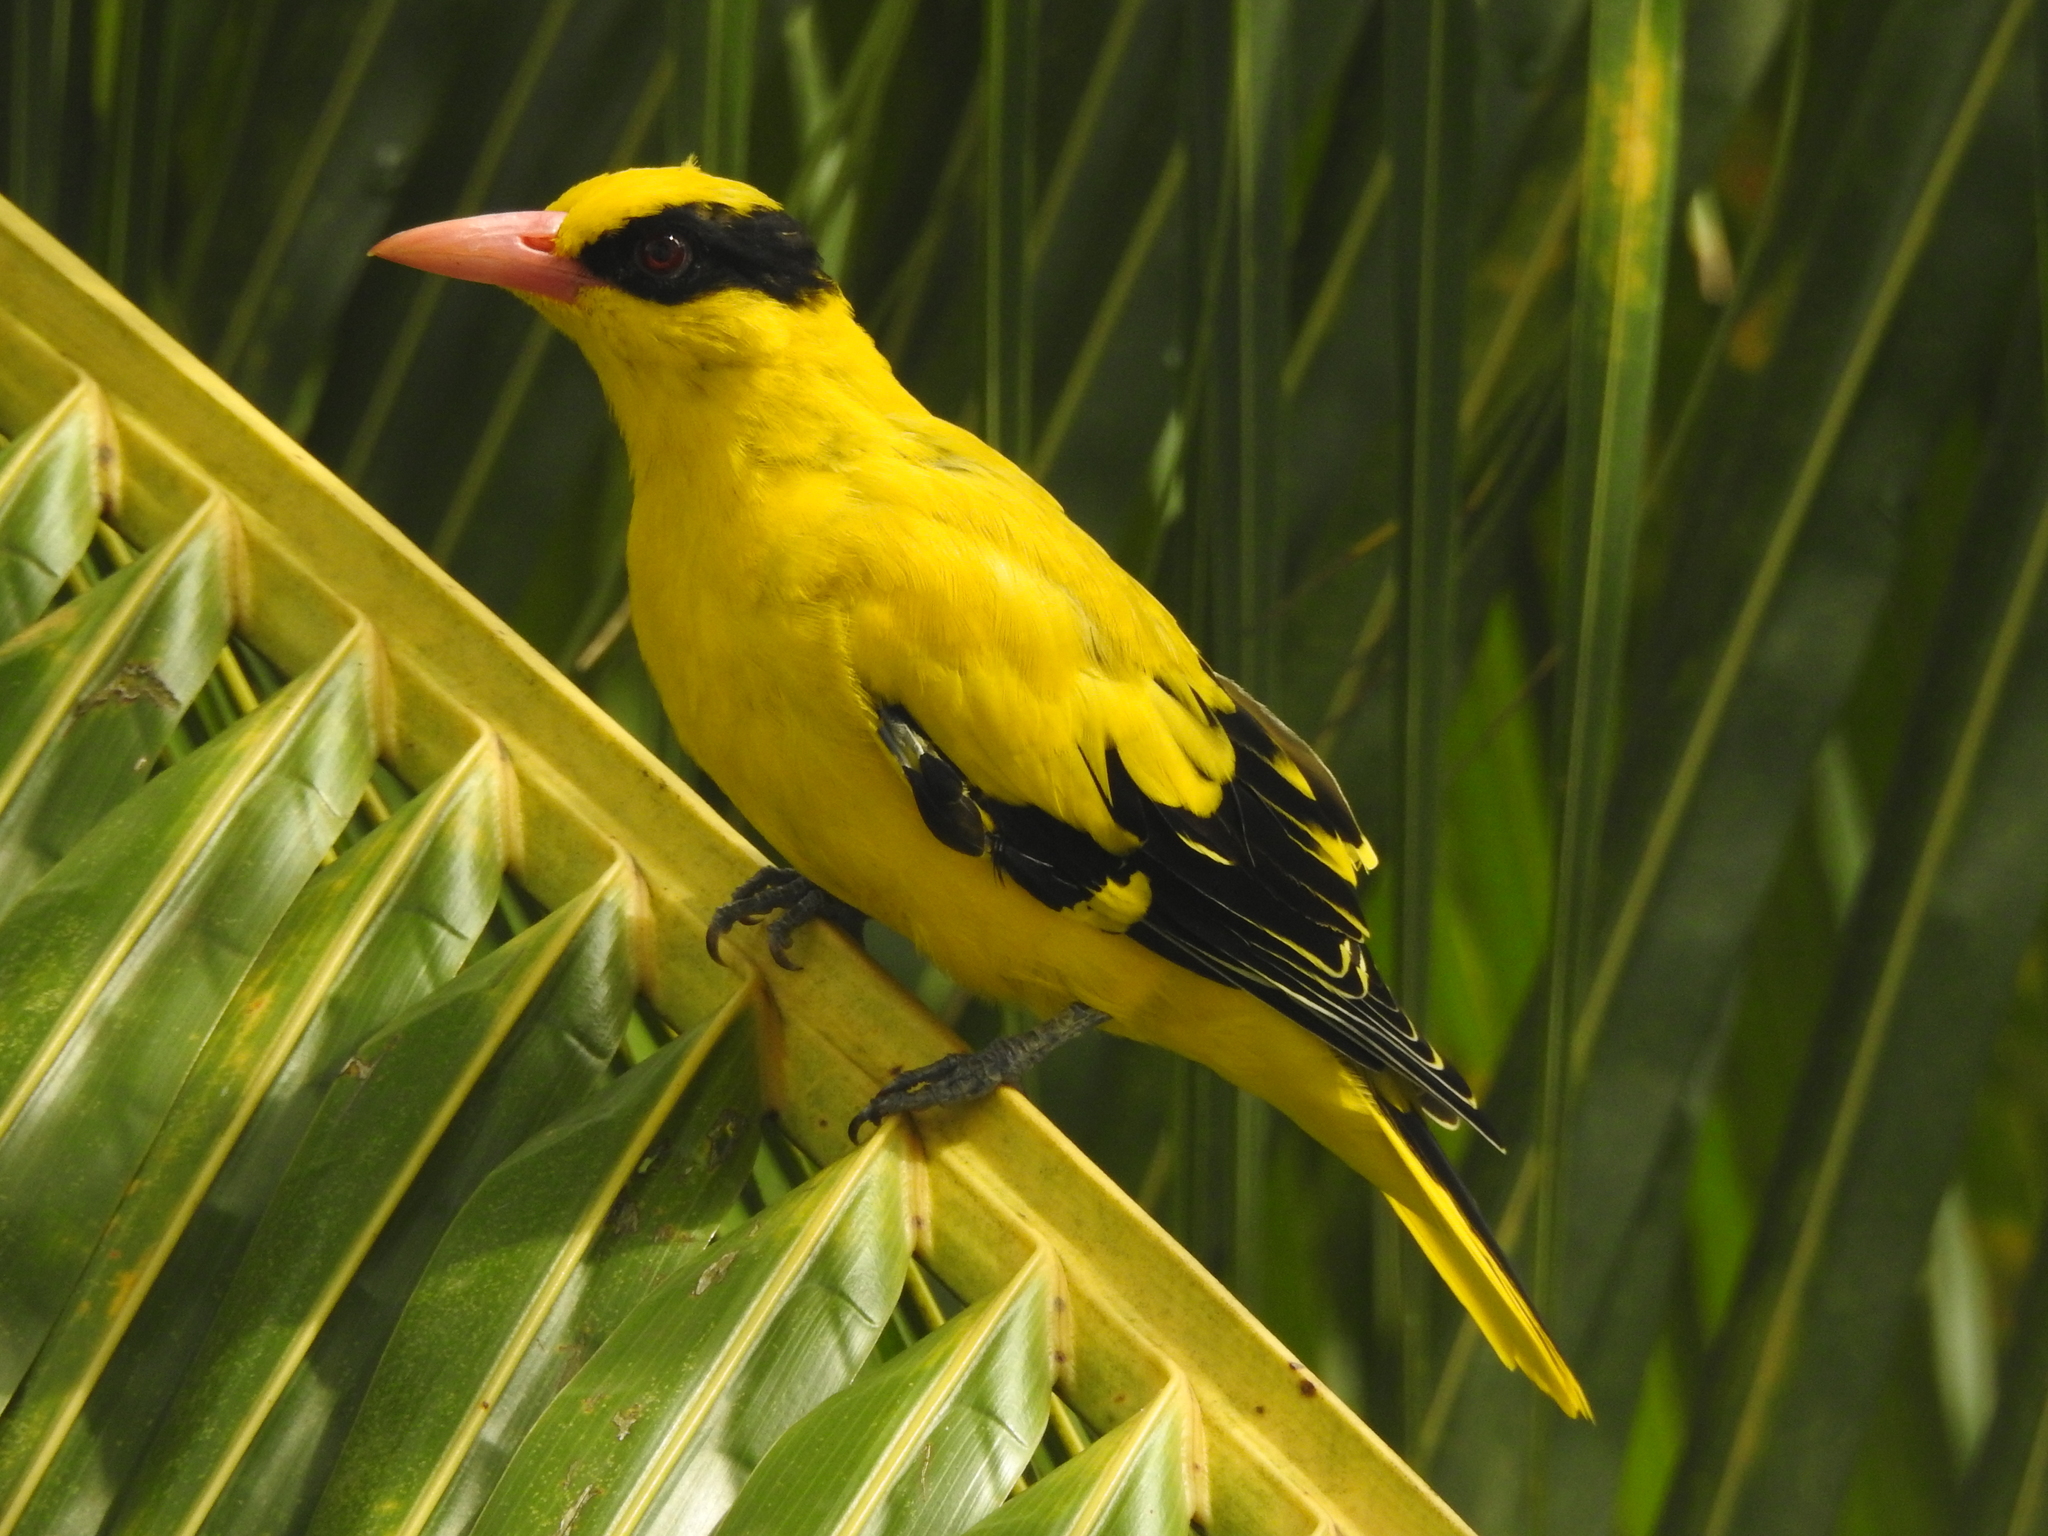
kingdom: Animalia
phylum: Chordata
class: Aves
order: Passeriformes
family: Oriolidae
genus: Oriolus
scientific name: Oriolus chinensis
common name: Black-naped oriole
